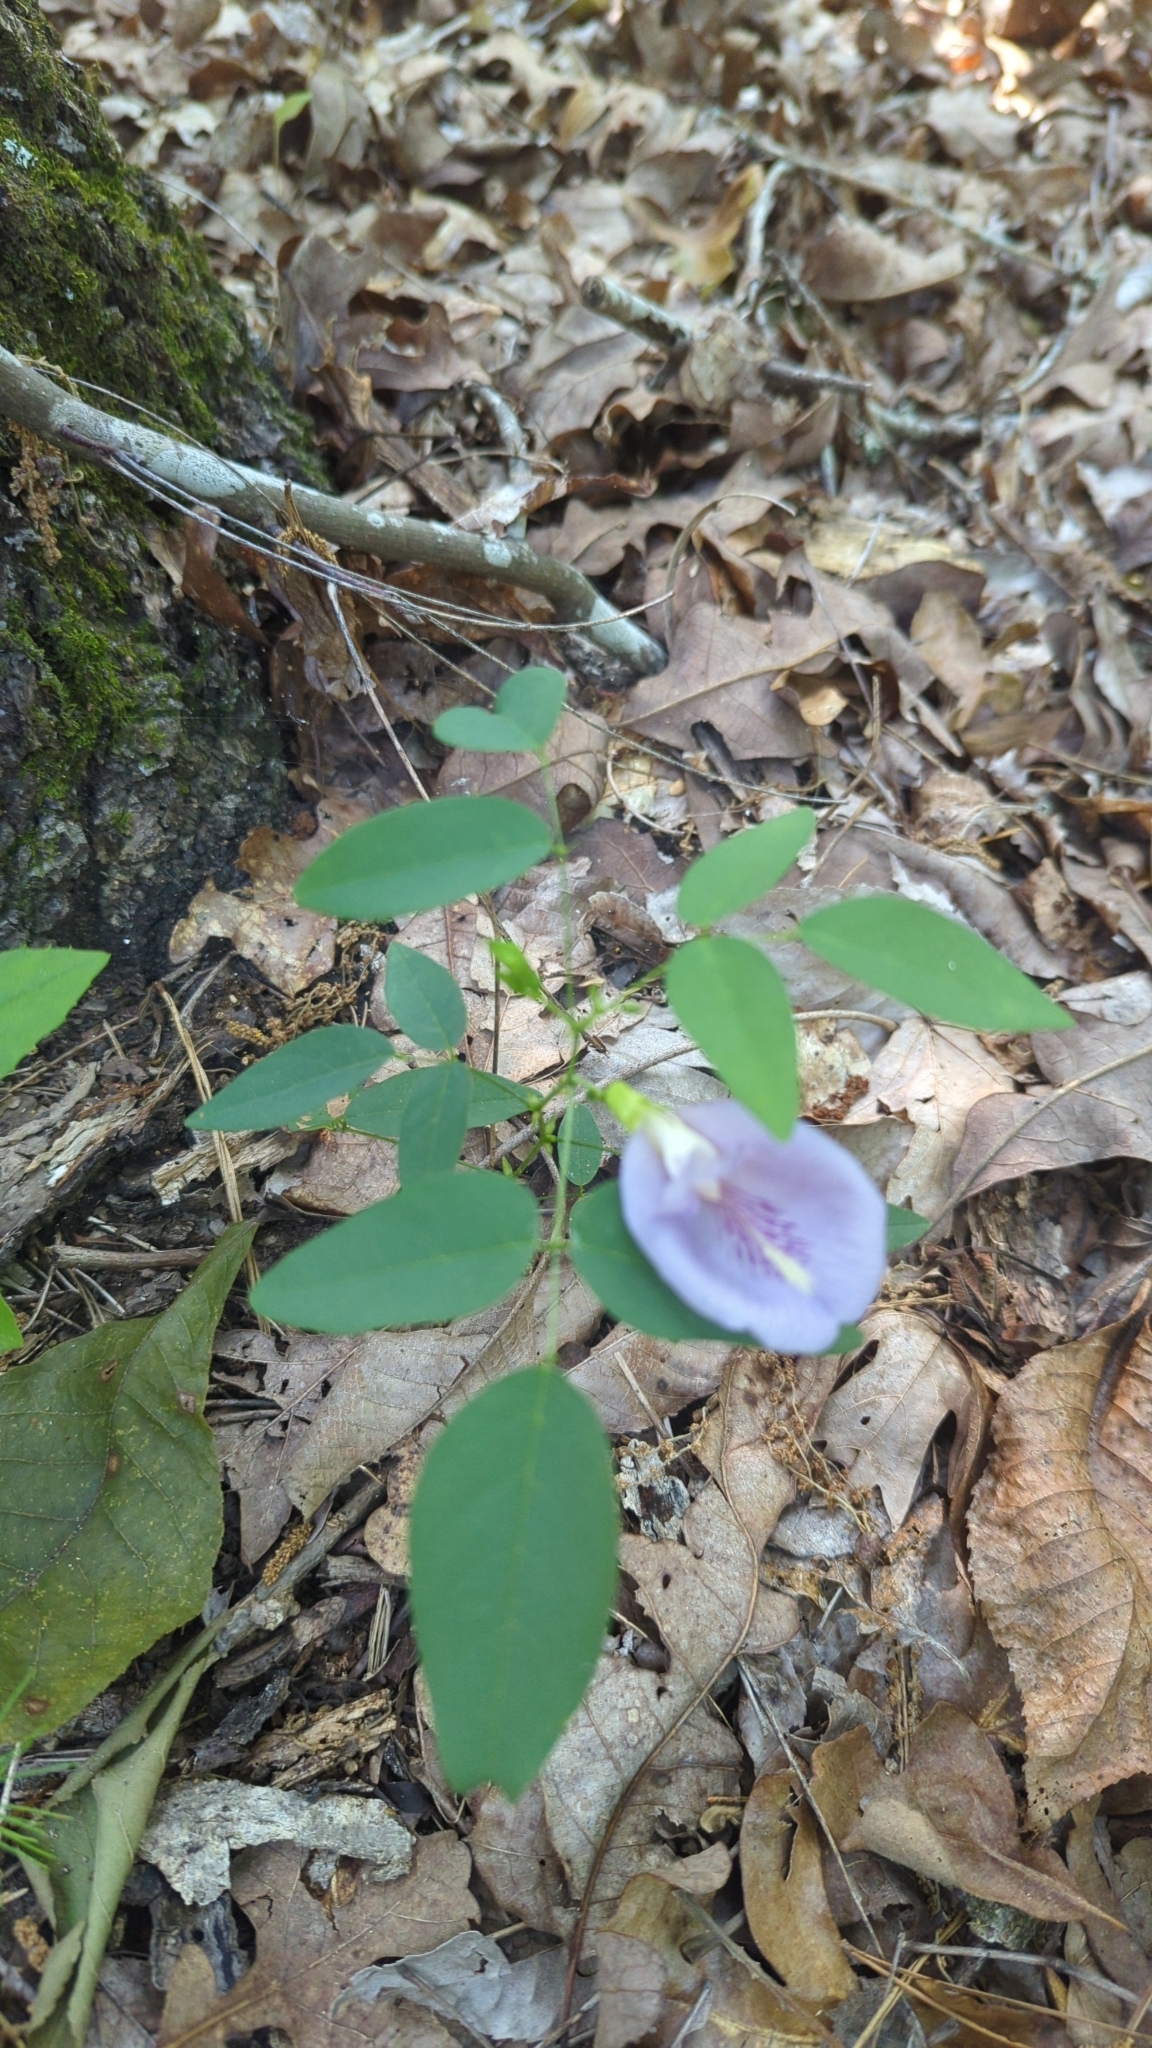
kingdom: Plantae
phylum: Tracheophyta
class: Magnoliopsida
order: Fabales
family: Fabaceae
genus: Clitoria
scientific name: Clitoria mariana
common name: Butterfly-pea
